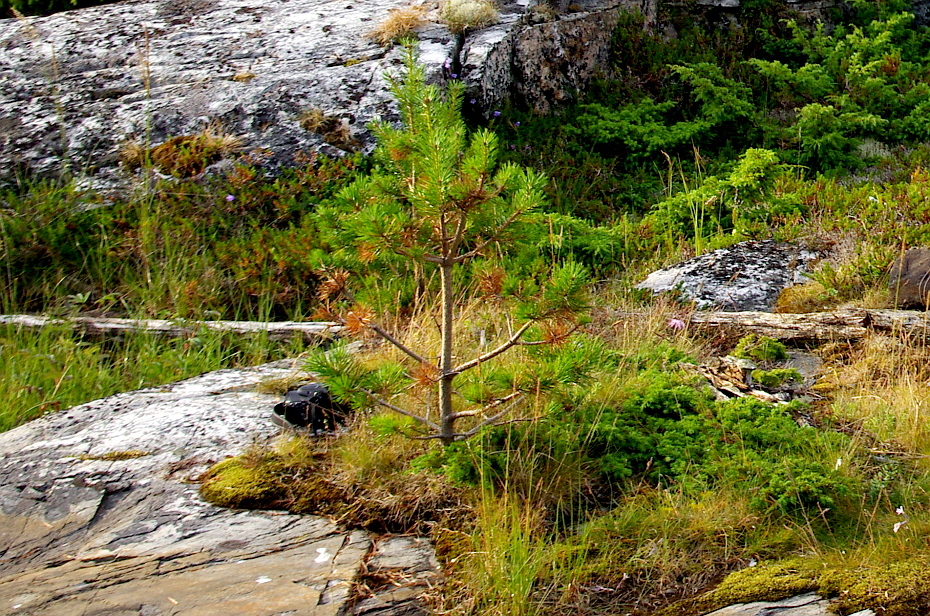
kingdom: Plantae
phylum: Tracheophyta
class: Pinopsida
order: Pinales
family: Pinaceae
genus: Pinus
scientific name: Pinus sylvestris
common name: Scots pine
